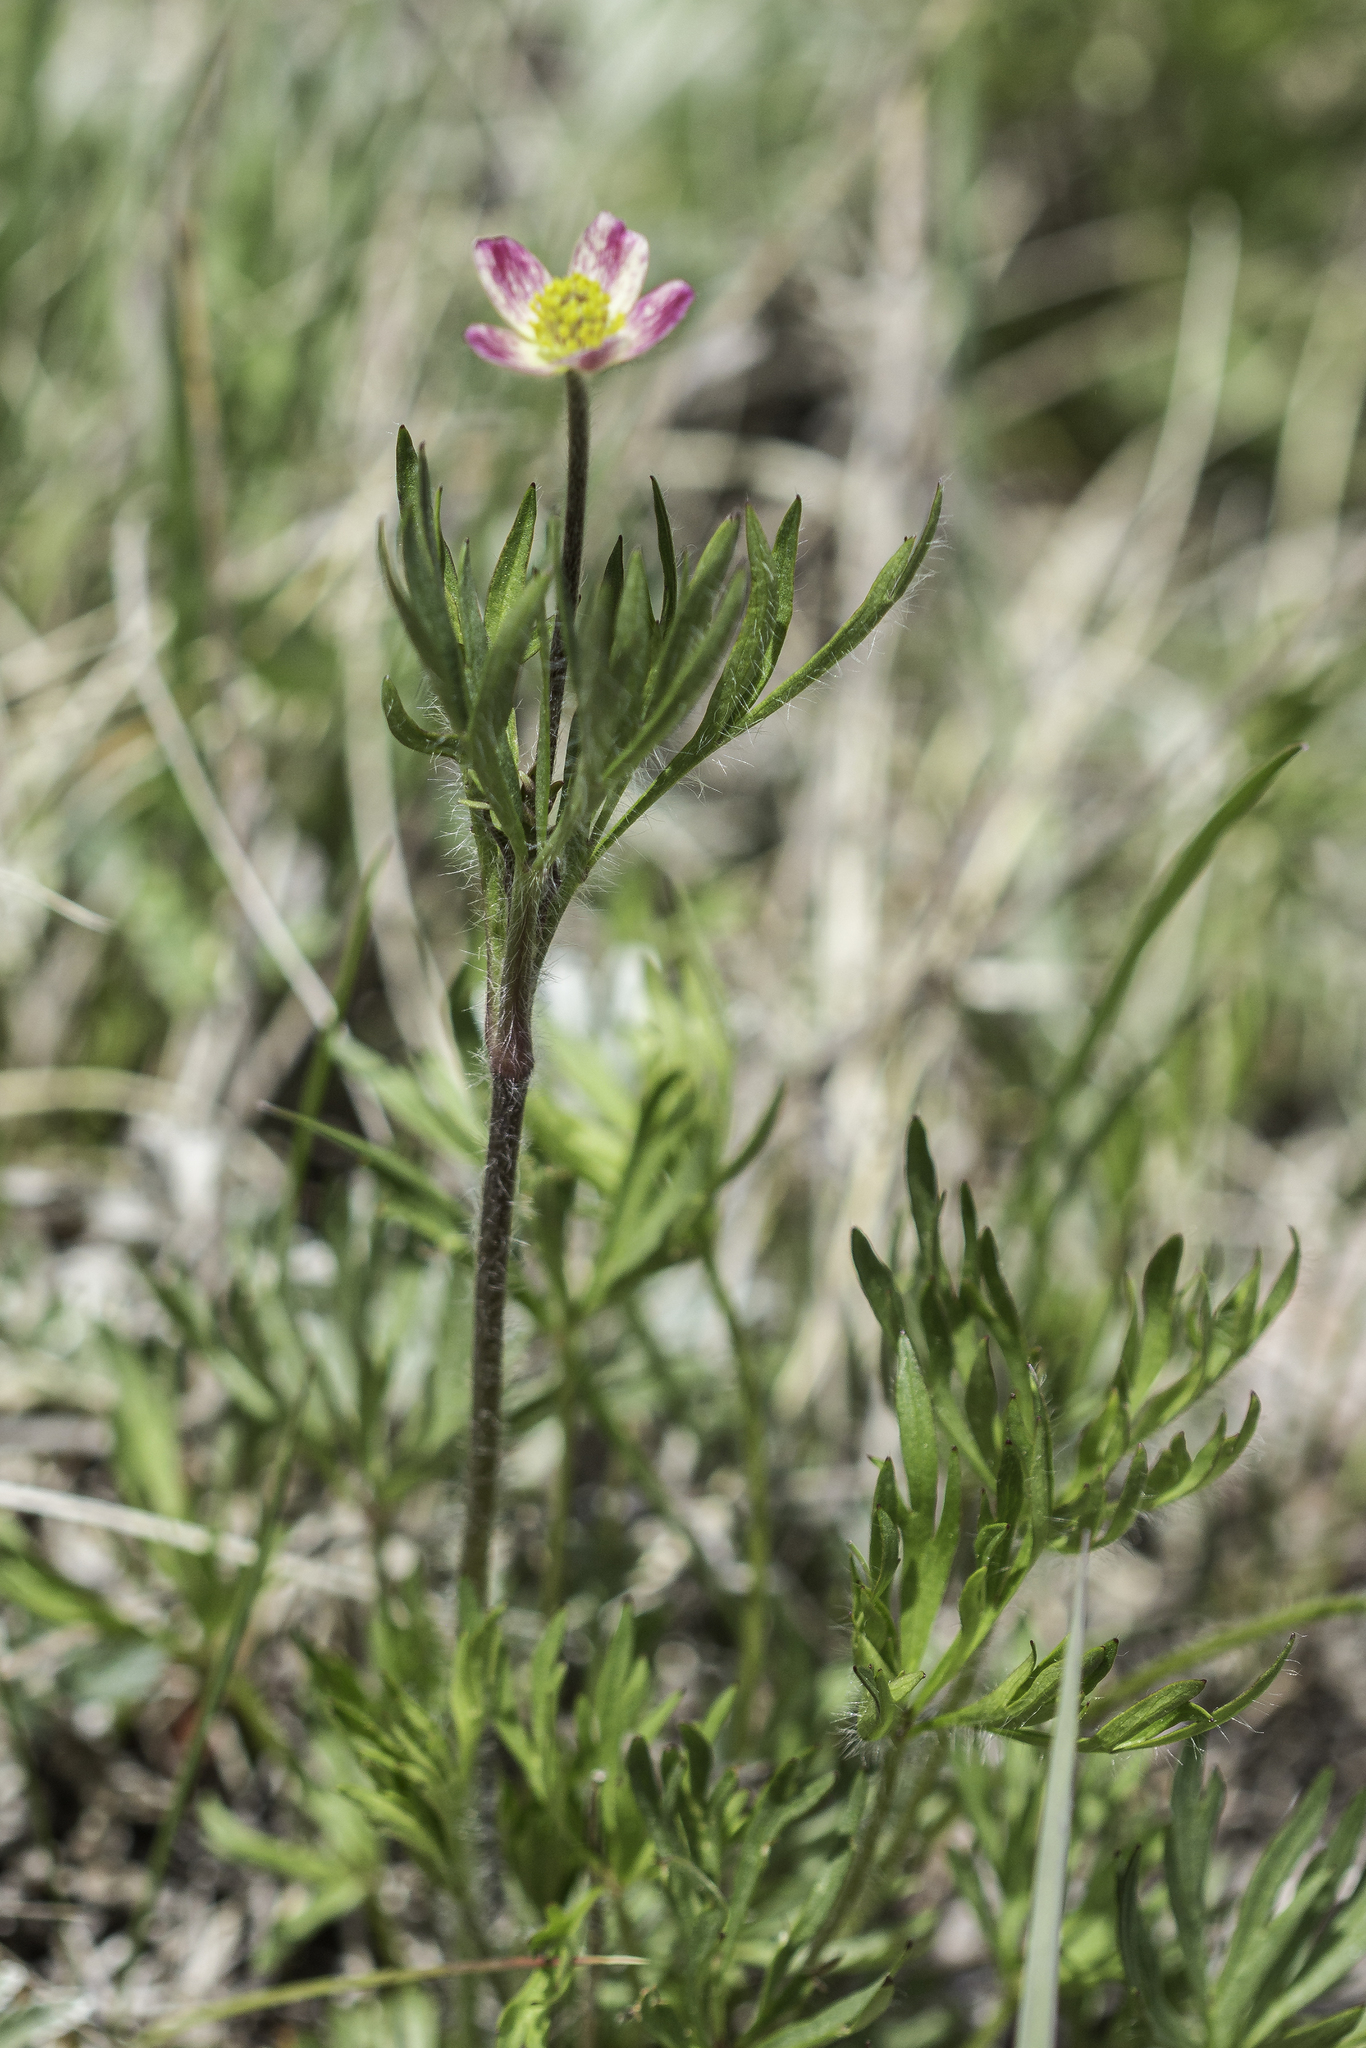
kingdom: Plantae
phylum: Tracheophyta
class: Magnoliopsida
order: Ranunculales
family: Ranunculaceae
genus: Anemone
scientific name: Anemone multifida
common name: Bird's-foot anemone
